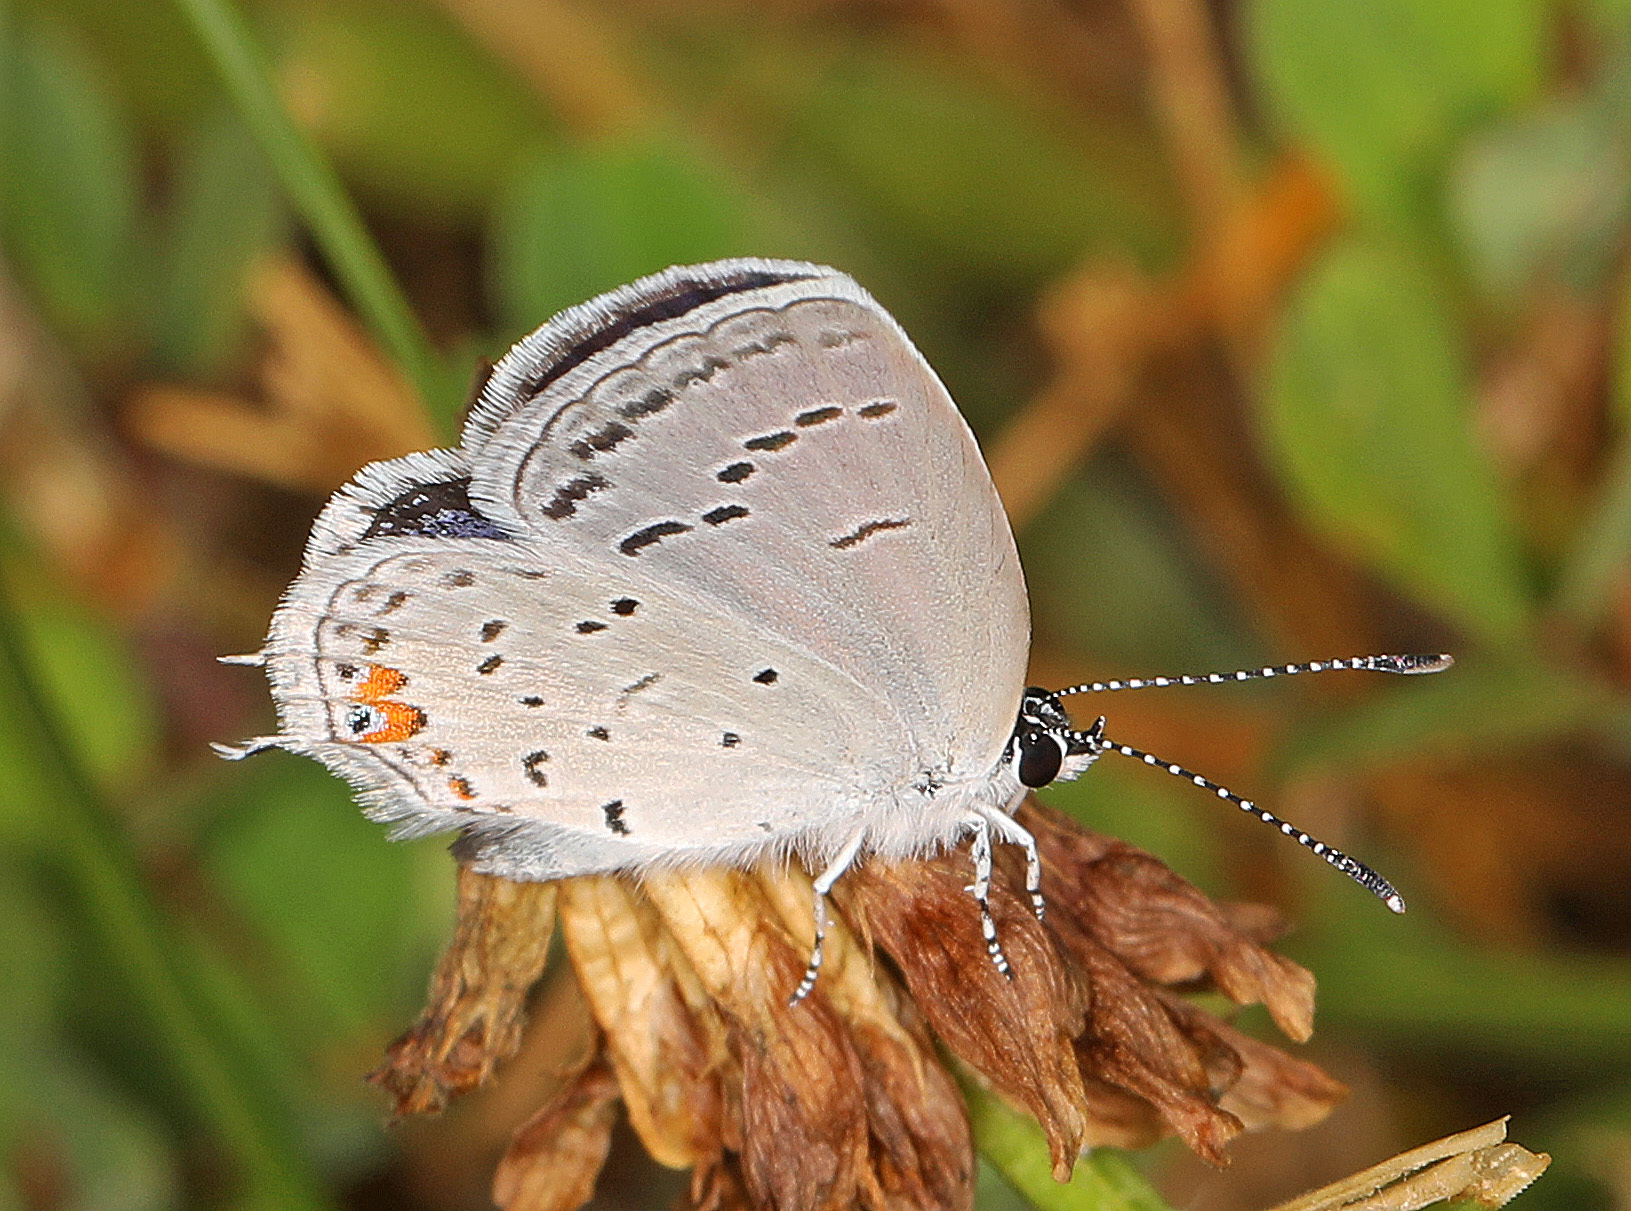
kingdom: Animalia
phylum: Arthropoda
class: Insecta
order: Lepidoptera
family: Lycaenidae
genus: Elkalyce
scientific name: Elkalyce comyntas
